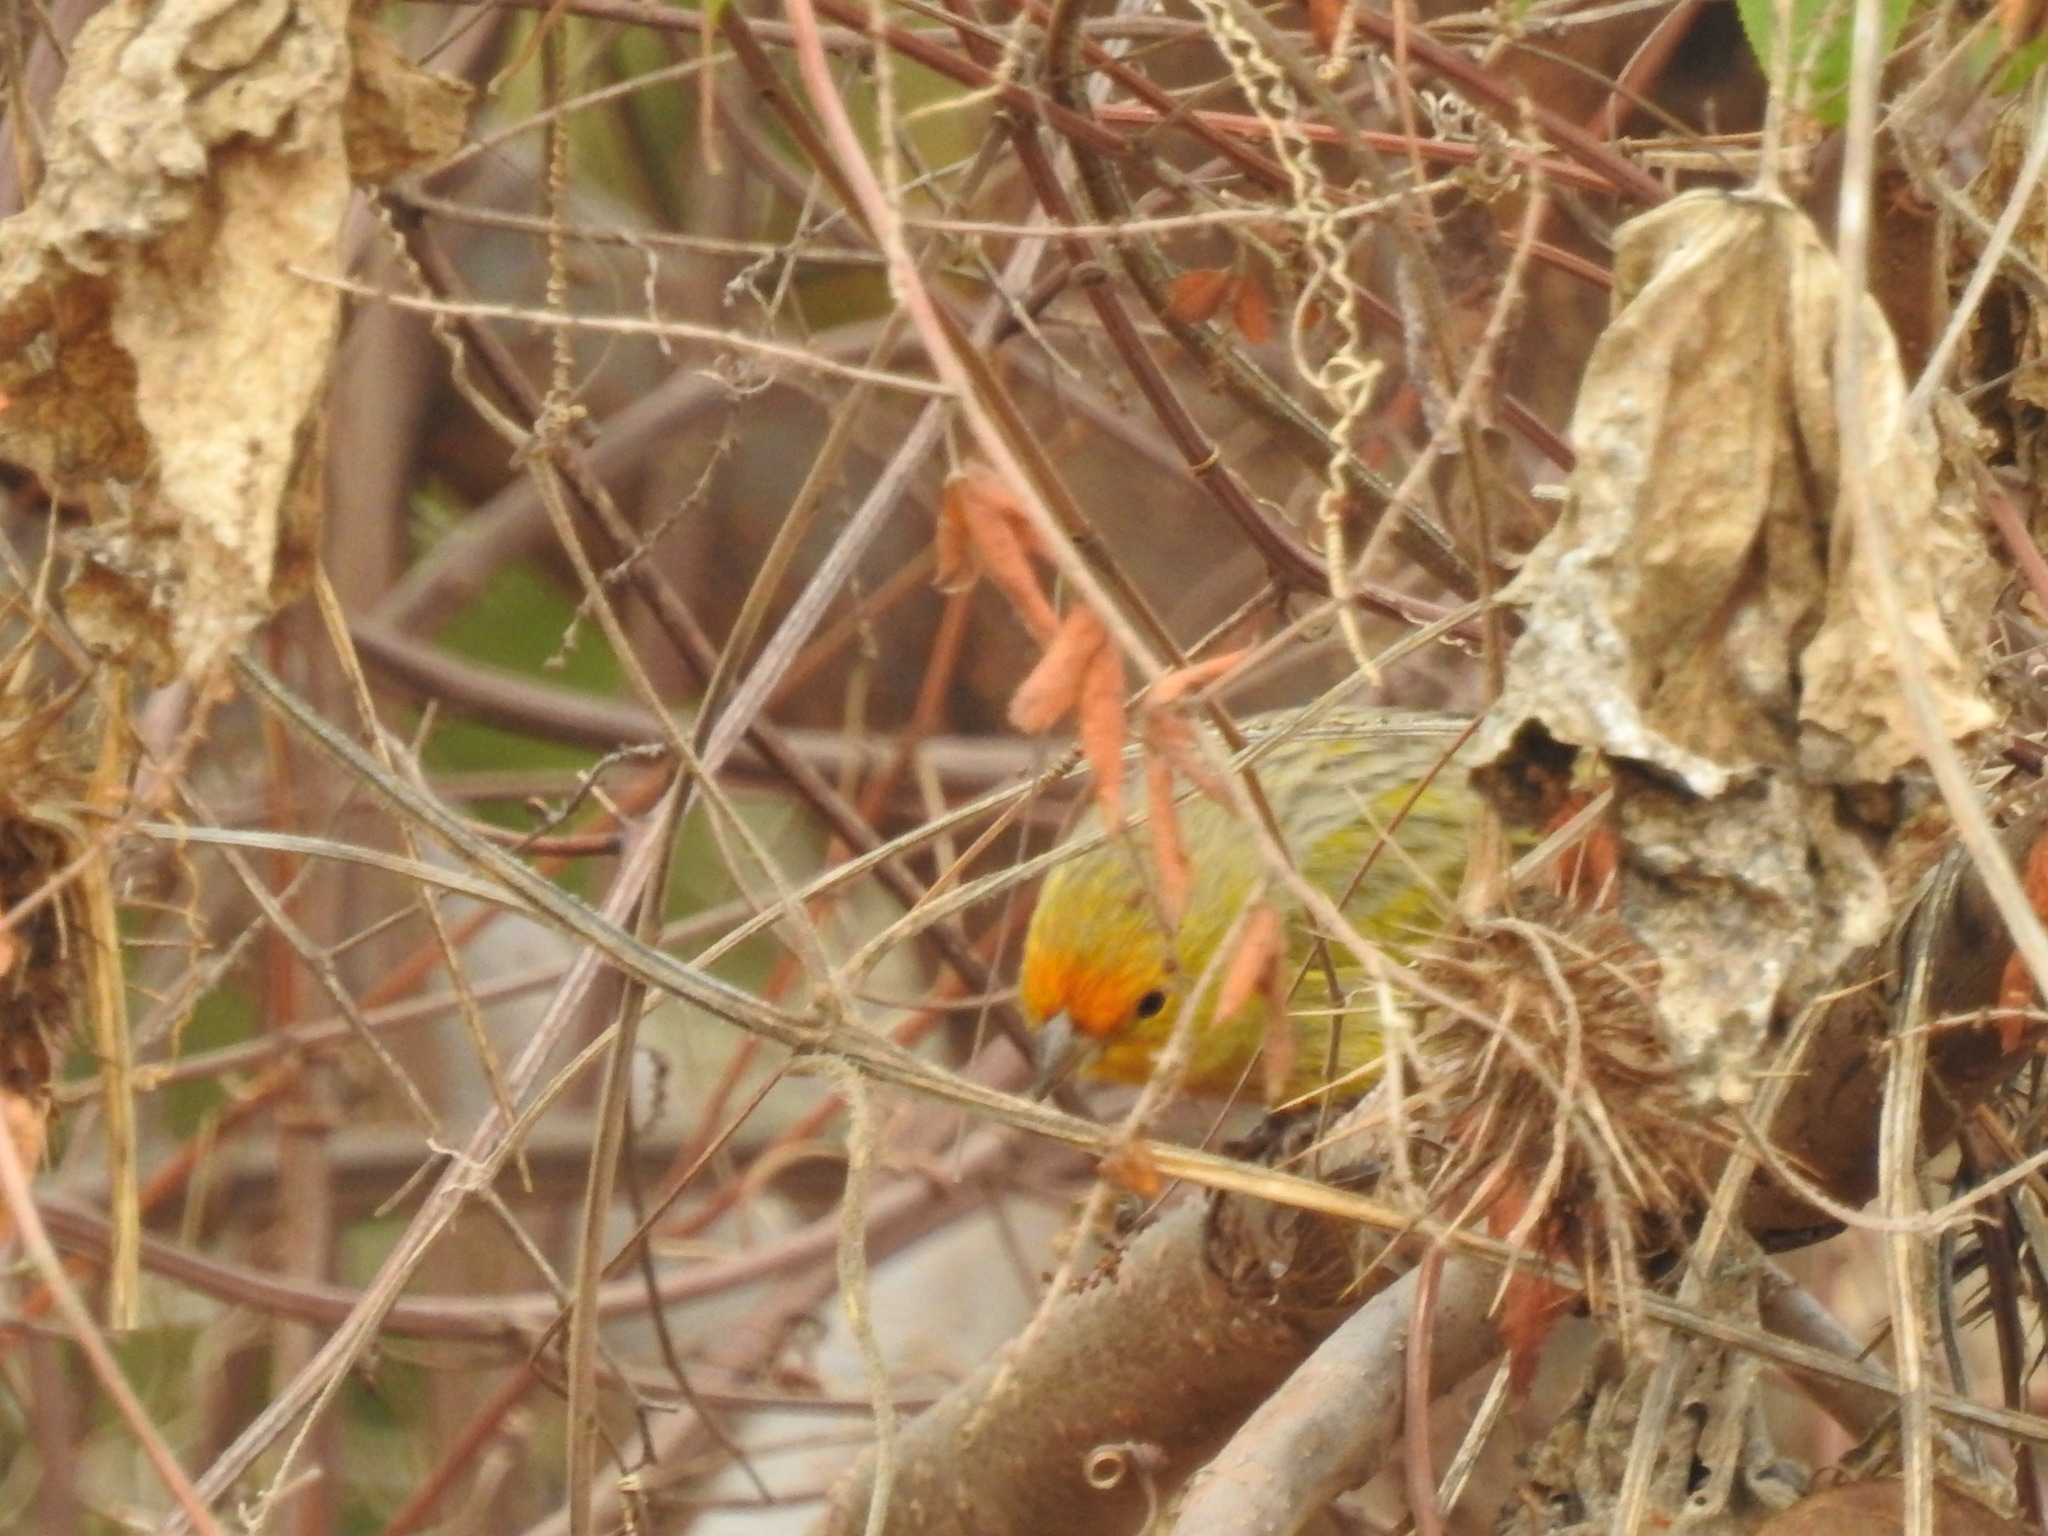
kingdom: Animalia
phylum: Chordata
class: Aves
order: Passeriformes
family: Thraupidae
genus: Sicalis
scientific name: Sicalis flaveola
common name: Saffron finch
